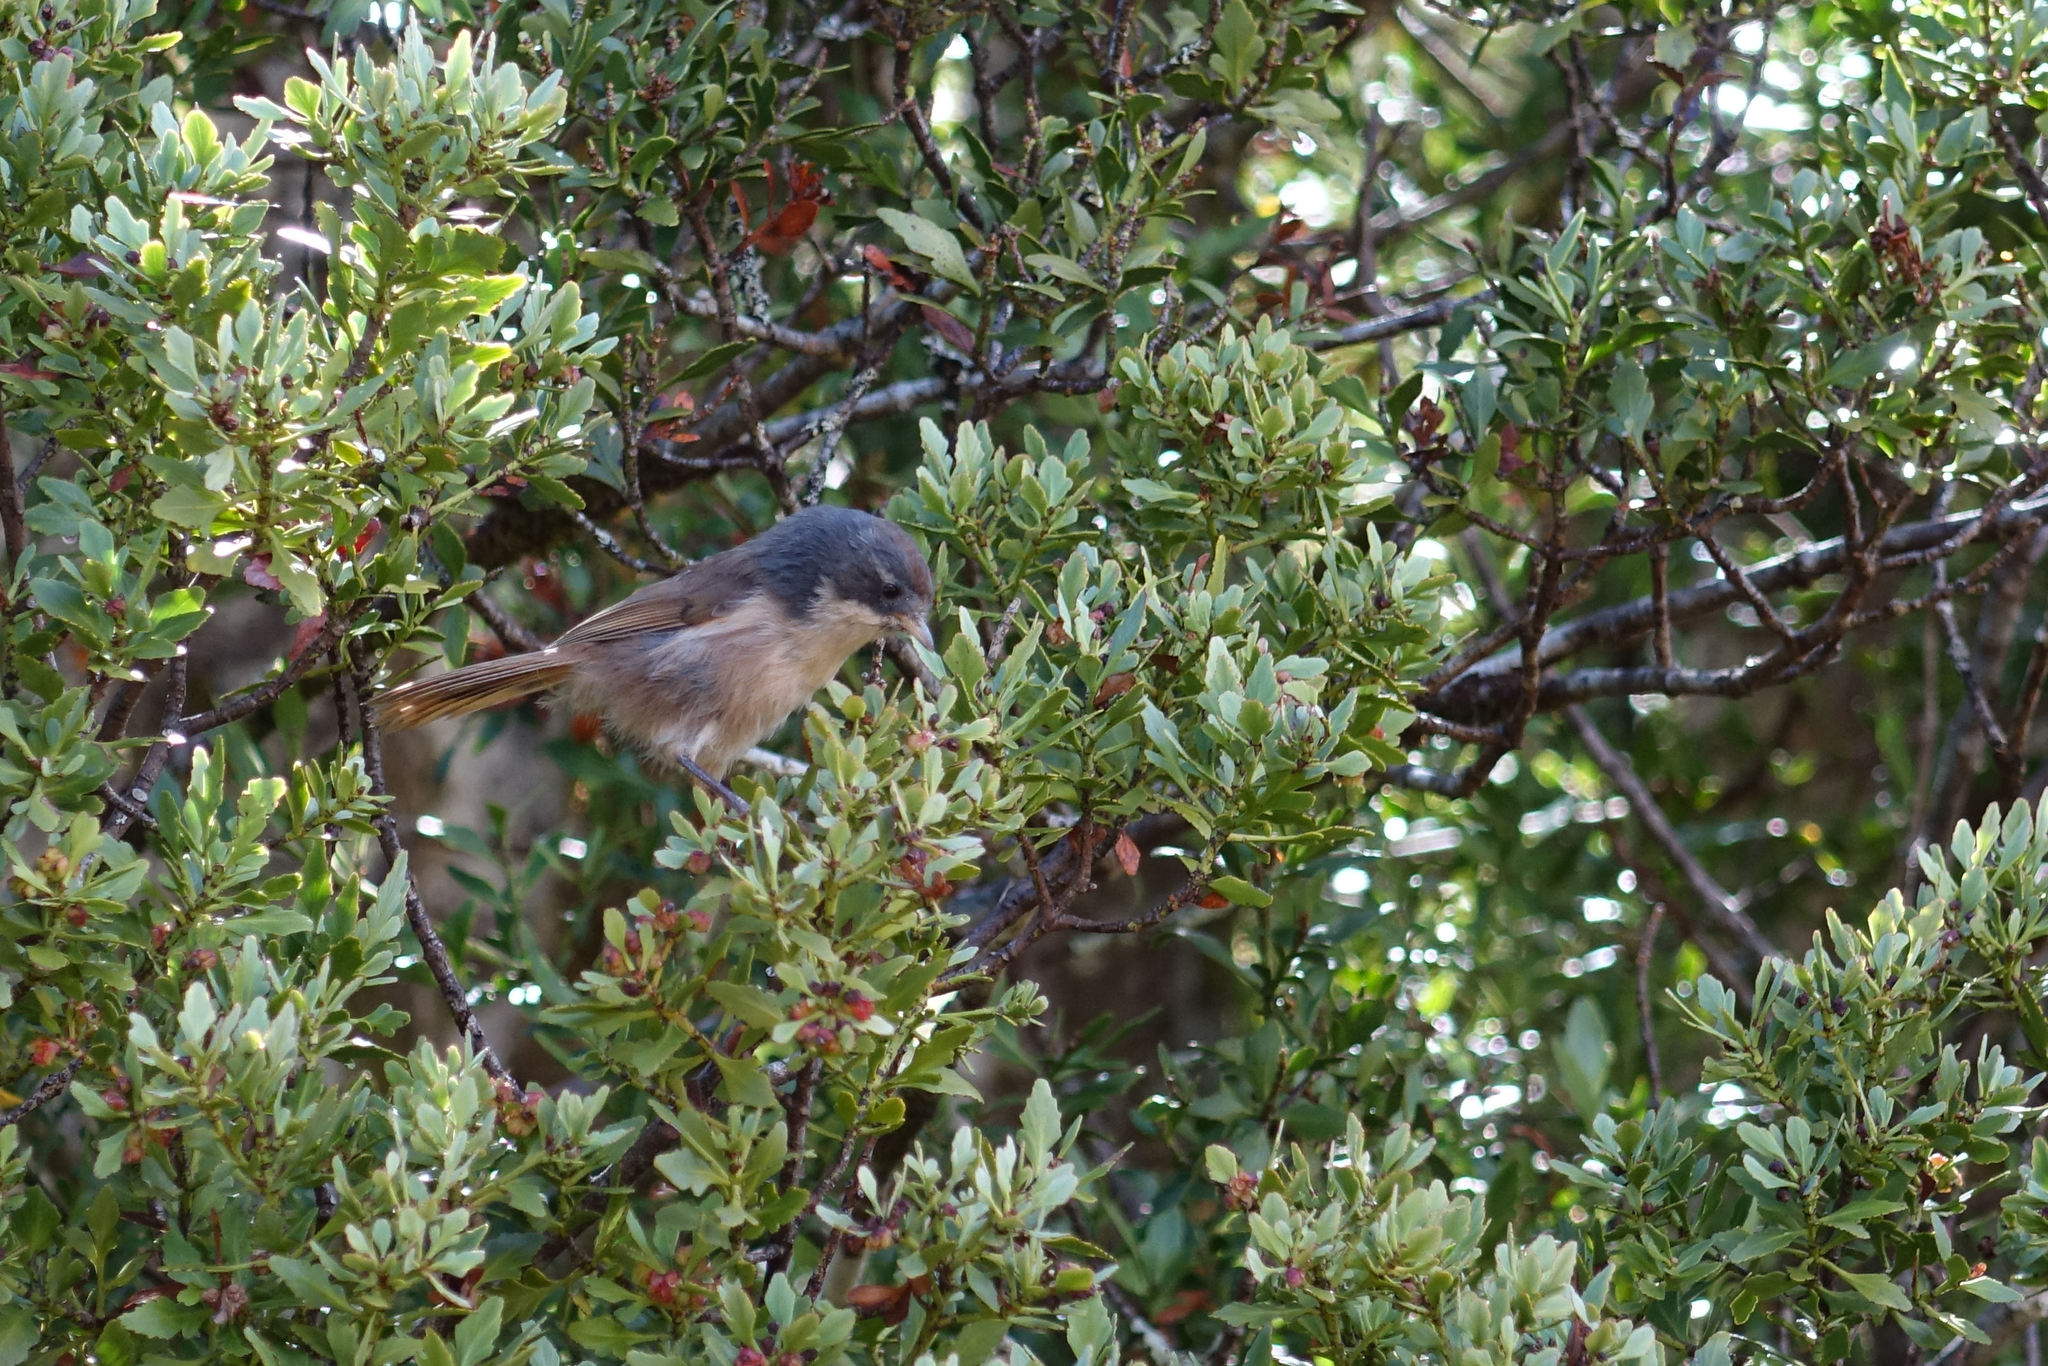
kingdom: Animalia
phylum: Chordata
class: Aves
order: Passeriformes
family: Acanthizidae
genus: Finschia
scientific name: Finschia novaeseelandiae
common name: Pipipi
